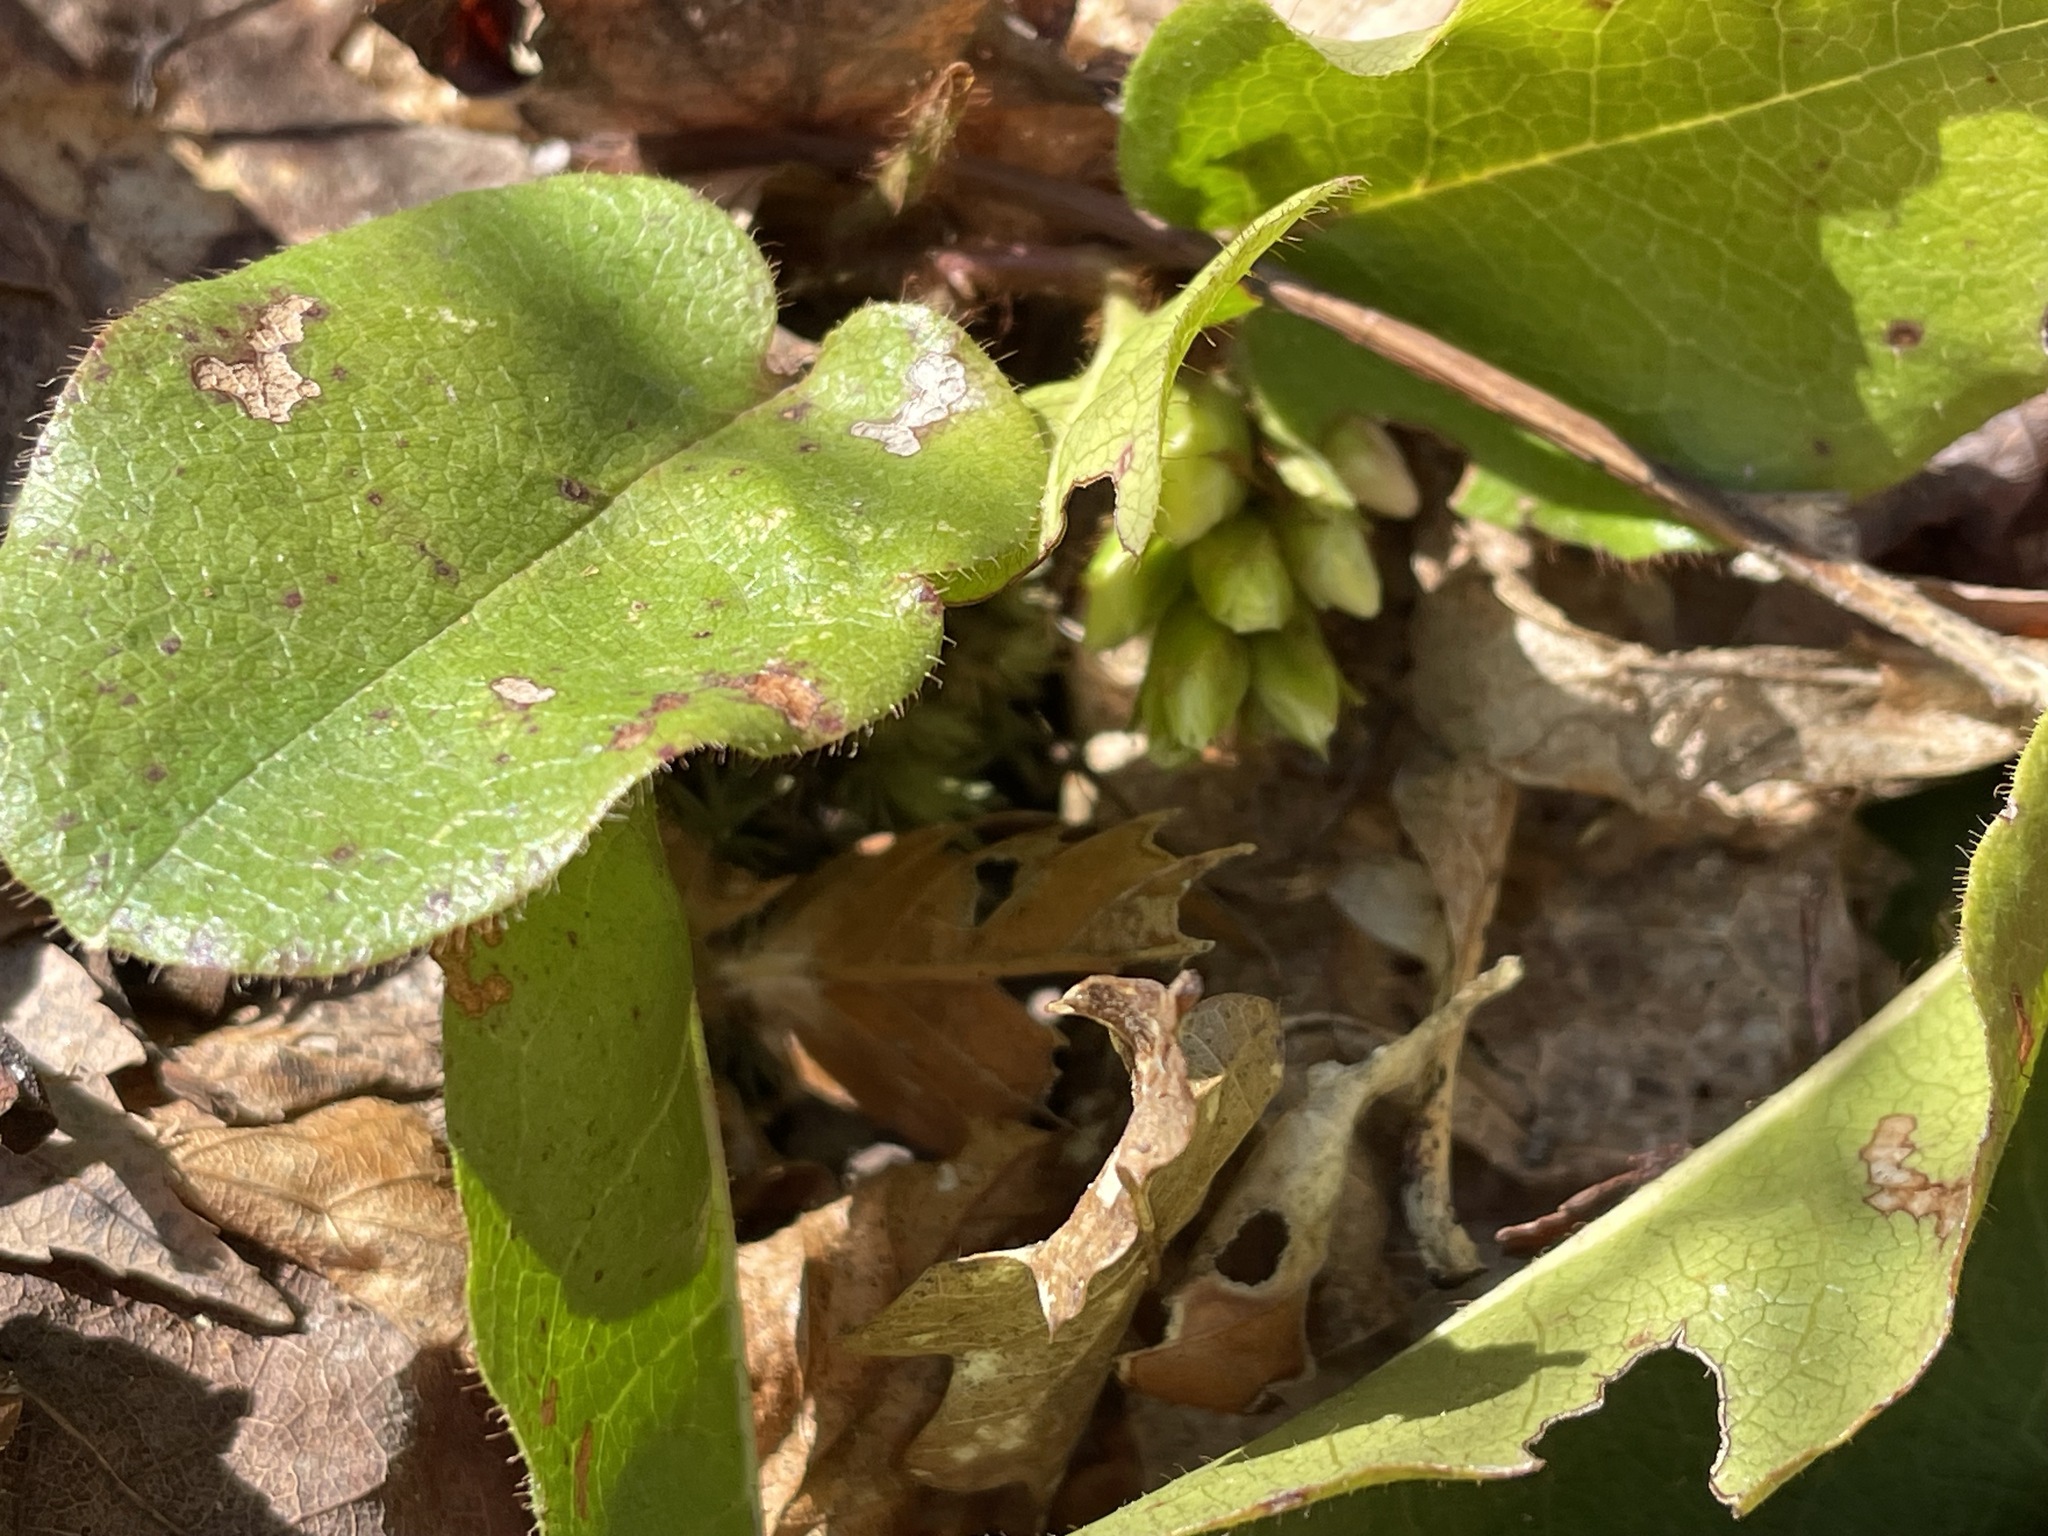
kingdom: Plantae
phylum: Tracheophyta
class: Magnoliopsida
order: Ericales
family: Ericaceae
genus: Epigaea
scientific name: Epigaea repens
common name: Gravelroot
